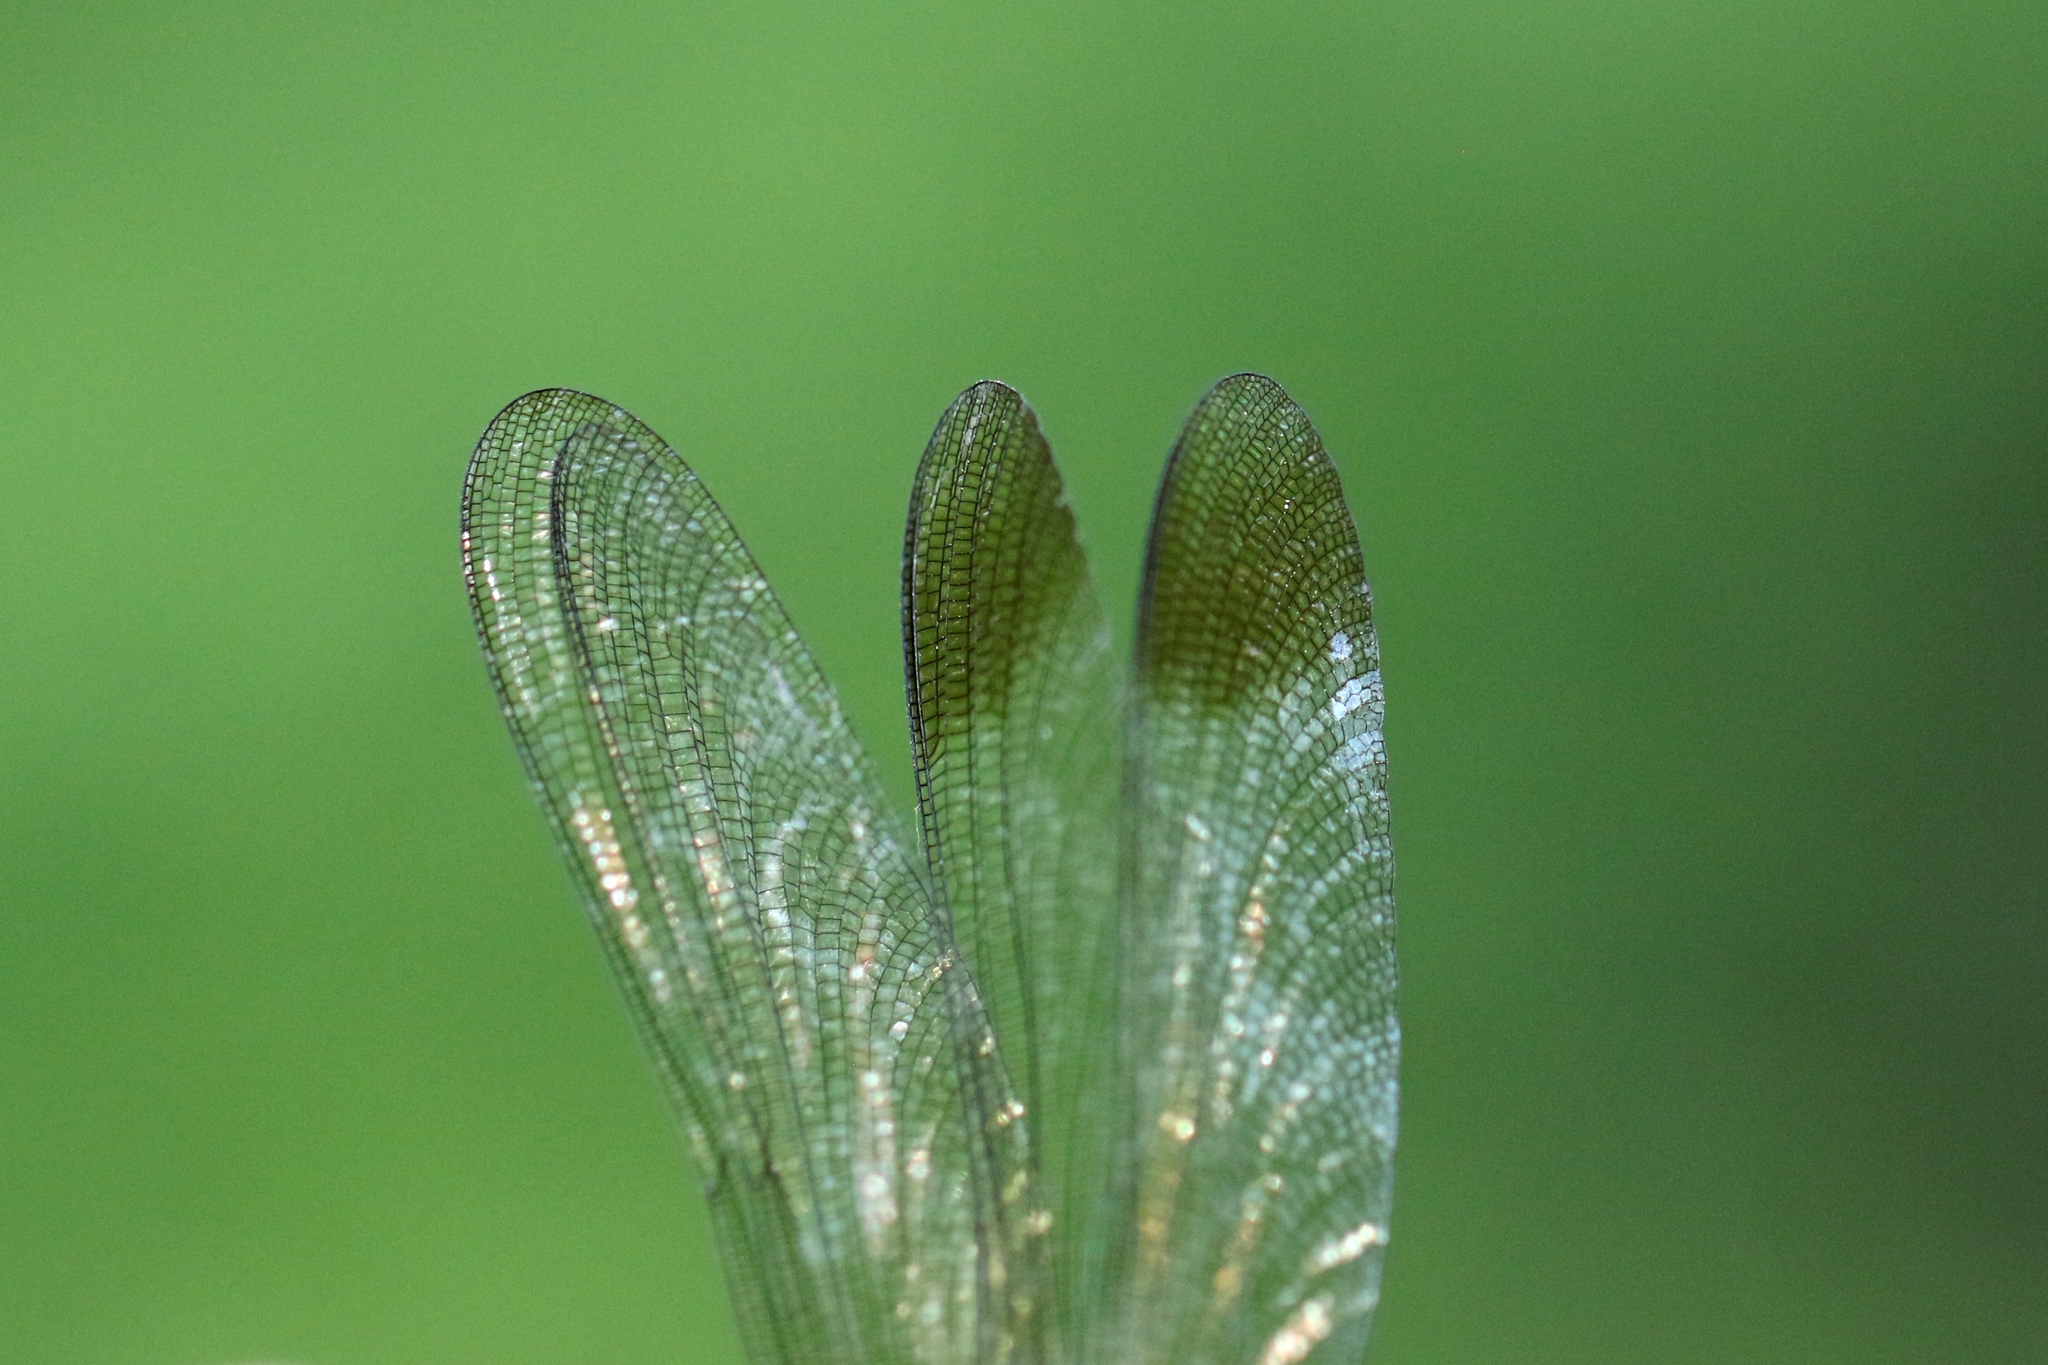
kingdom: Animalia
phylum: Arthropoda
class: Insecta
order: Odonata
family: Calopterygidae
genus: Calopteryx
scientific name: Calopteryx amata
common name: Superb jewelwing
